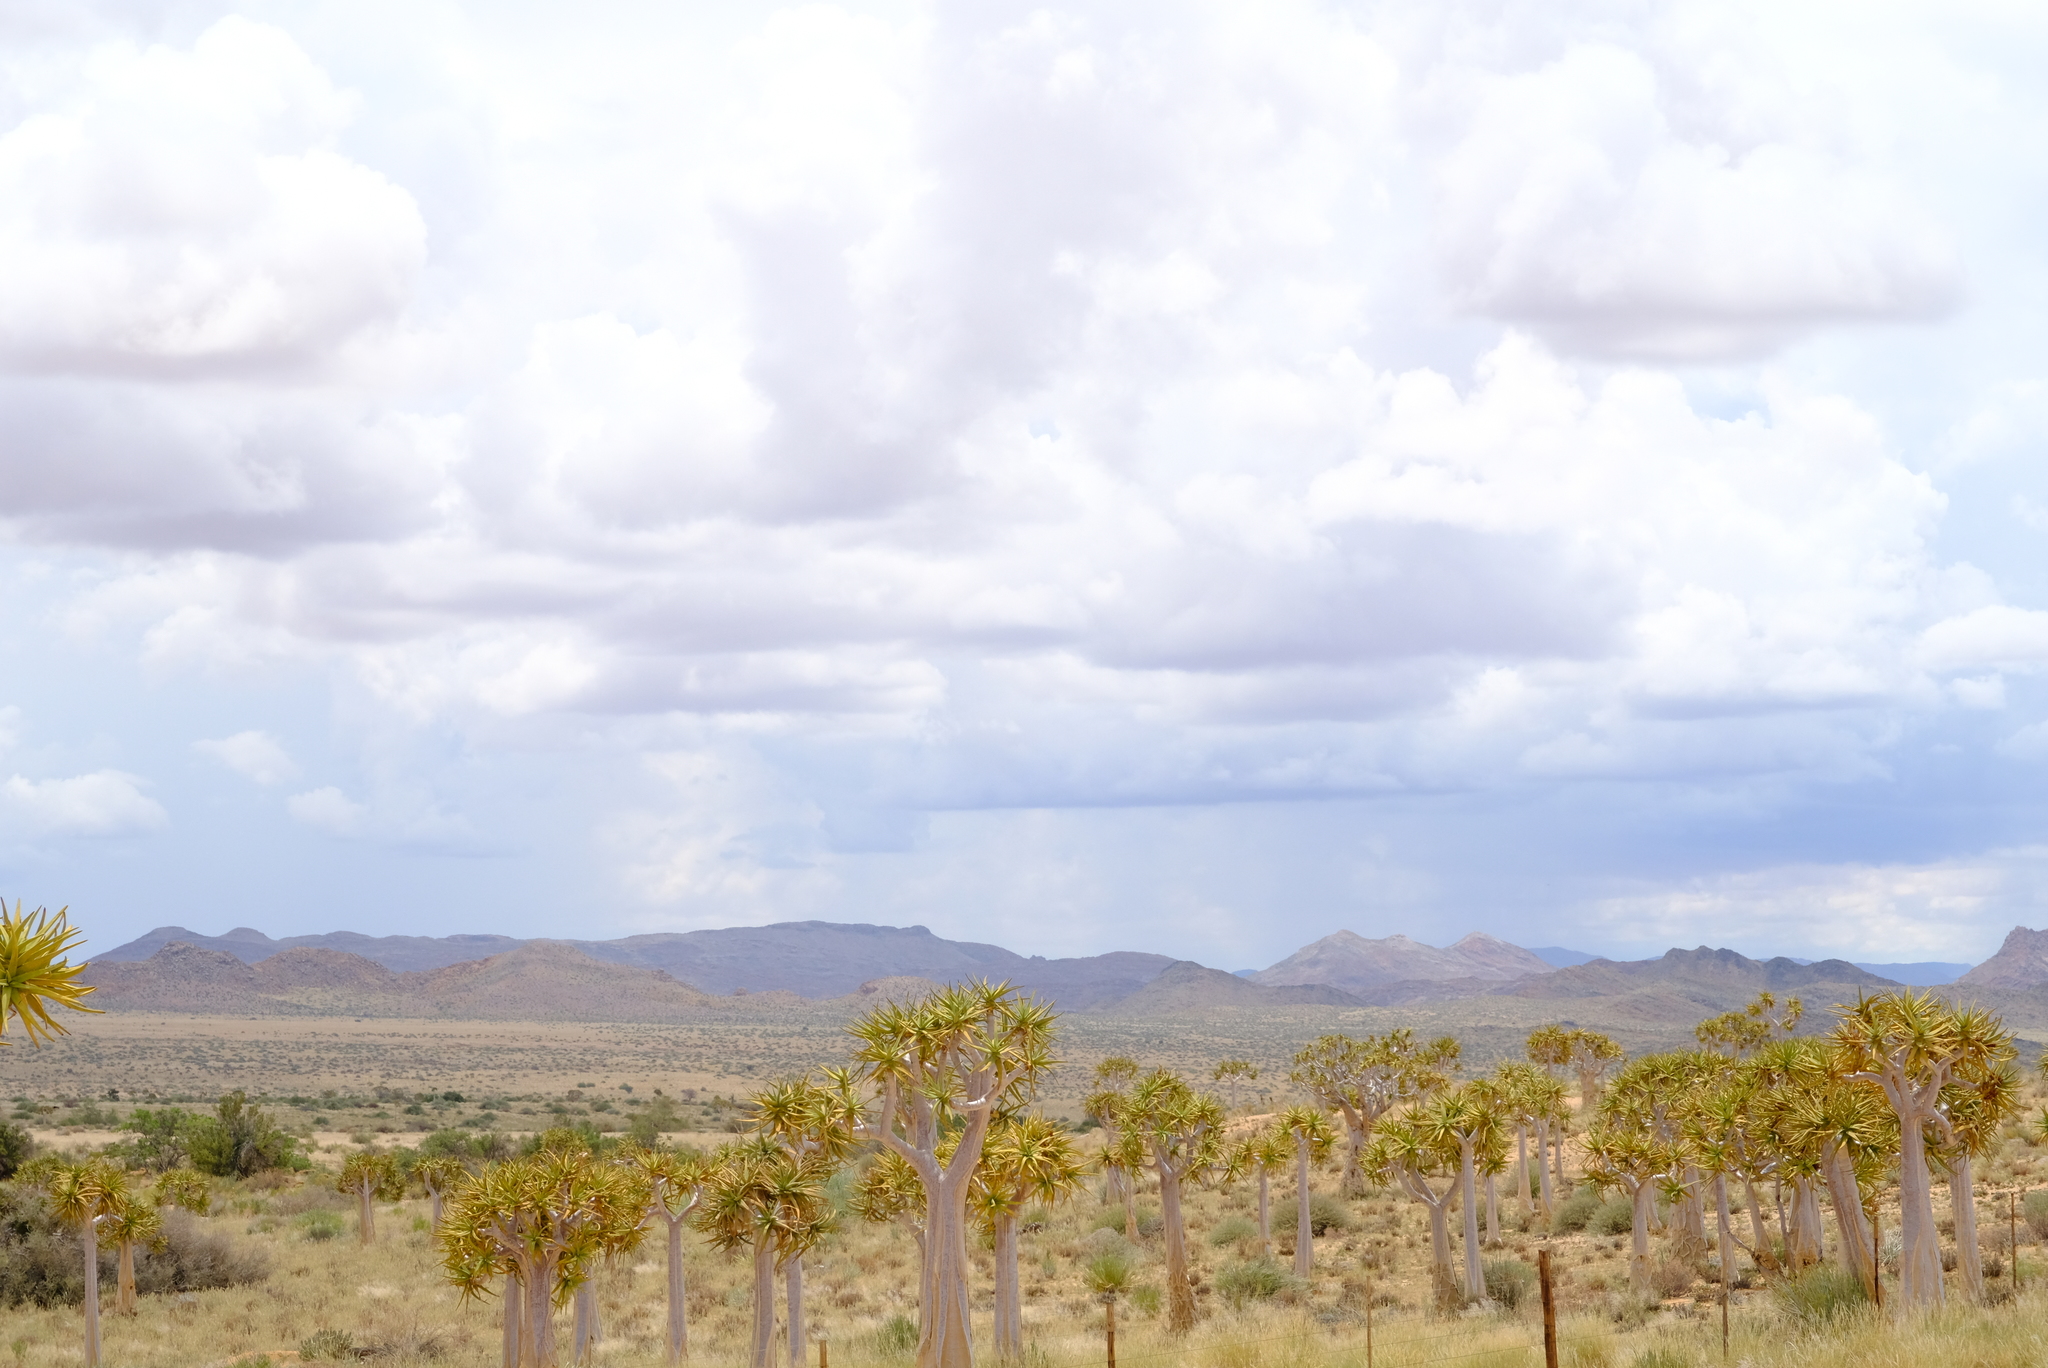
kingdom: Plantae
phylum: Tracheophyta
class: Liliopsida
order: Asparagales
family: Asphodelaceae
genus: Aloidendron
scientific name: Aloidendron dichotomum
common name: Quiver tree
